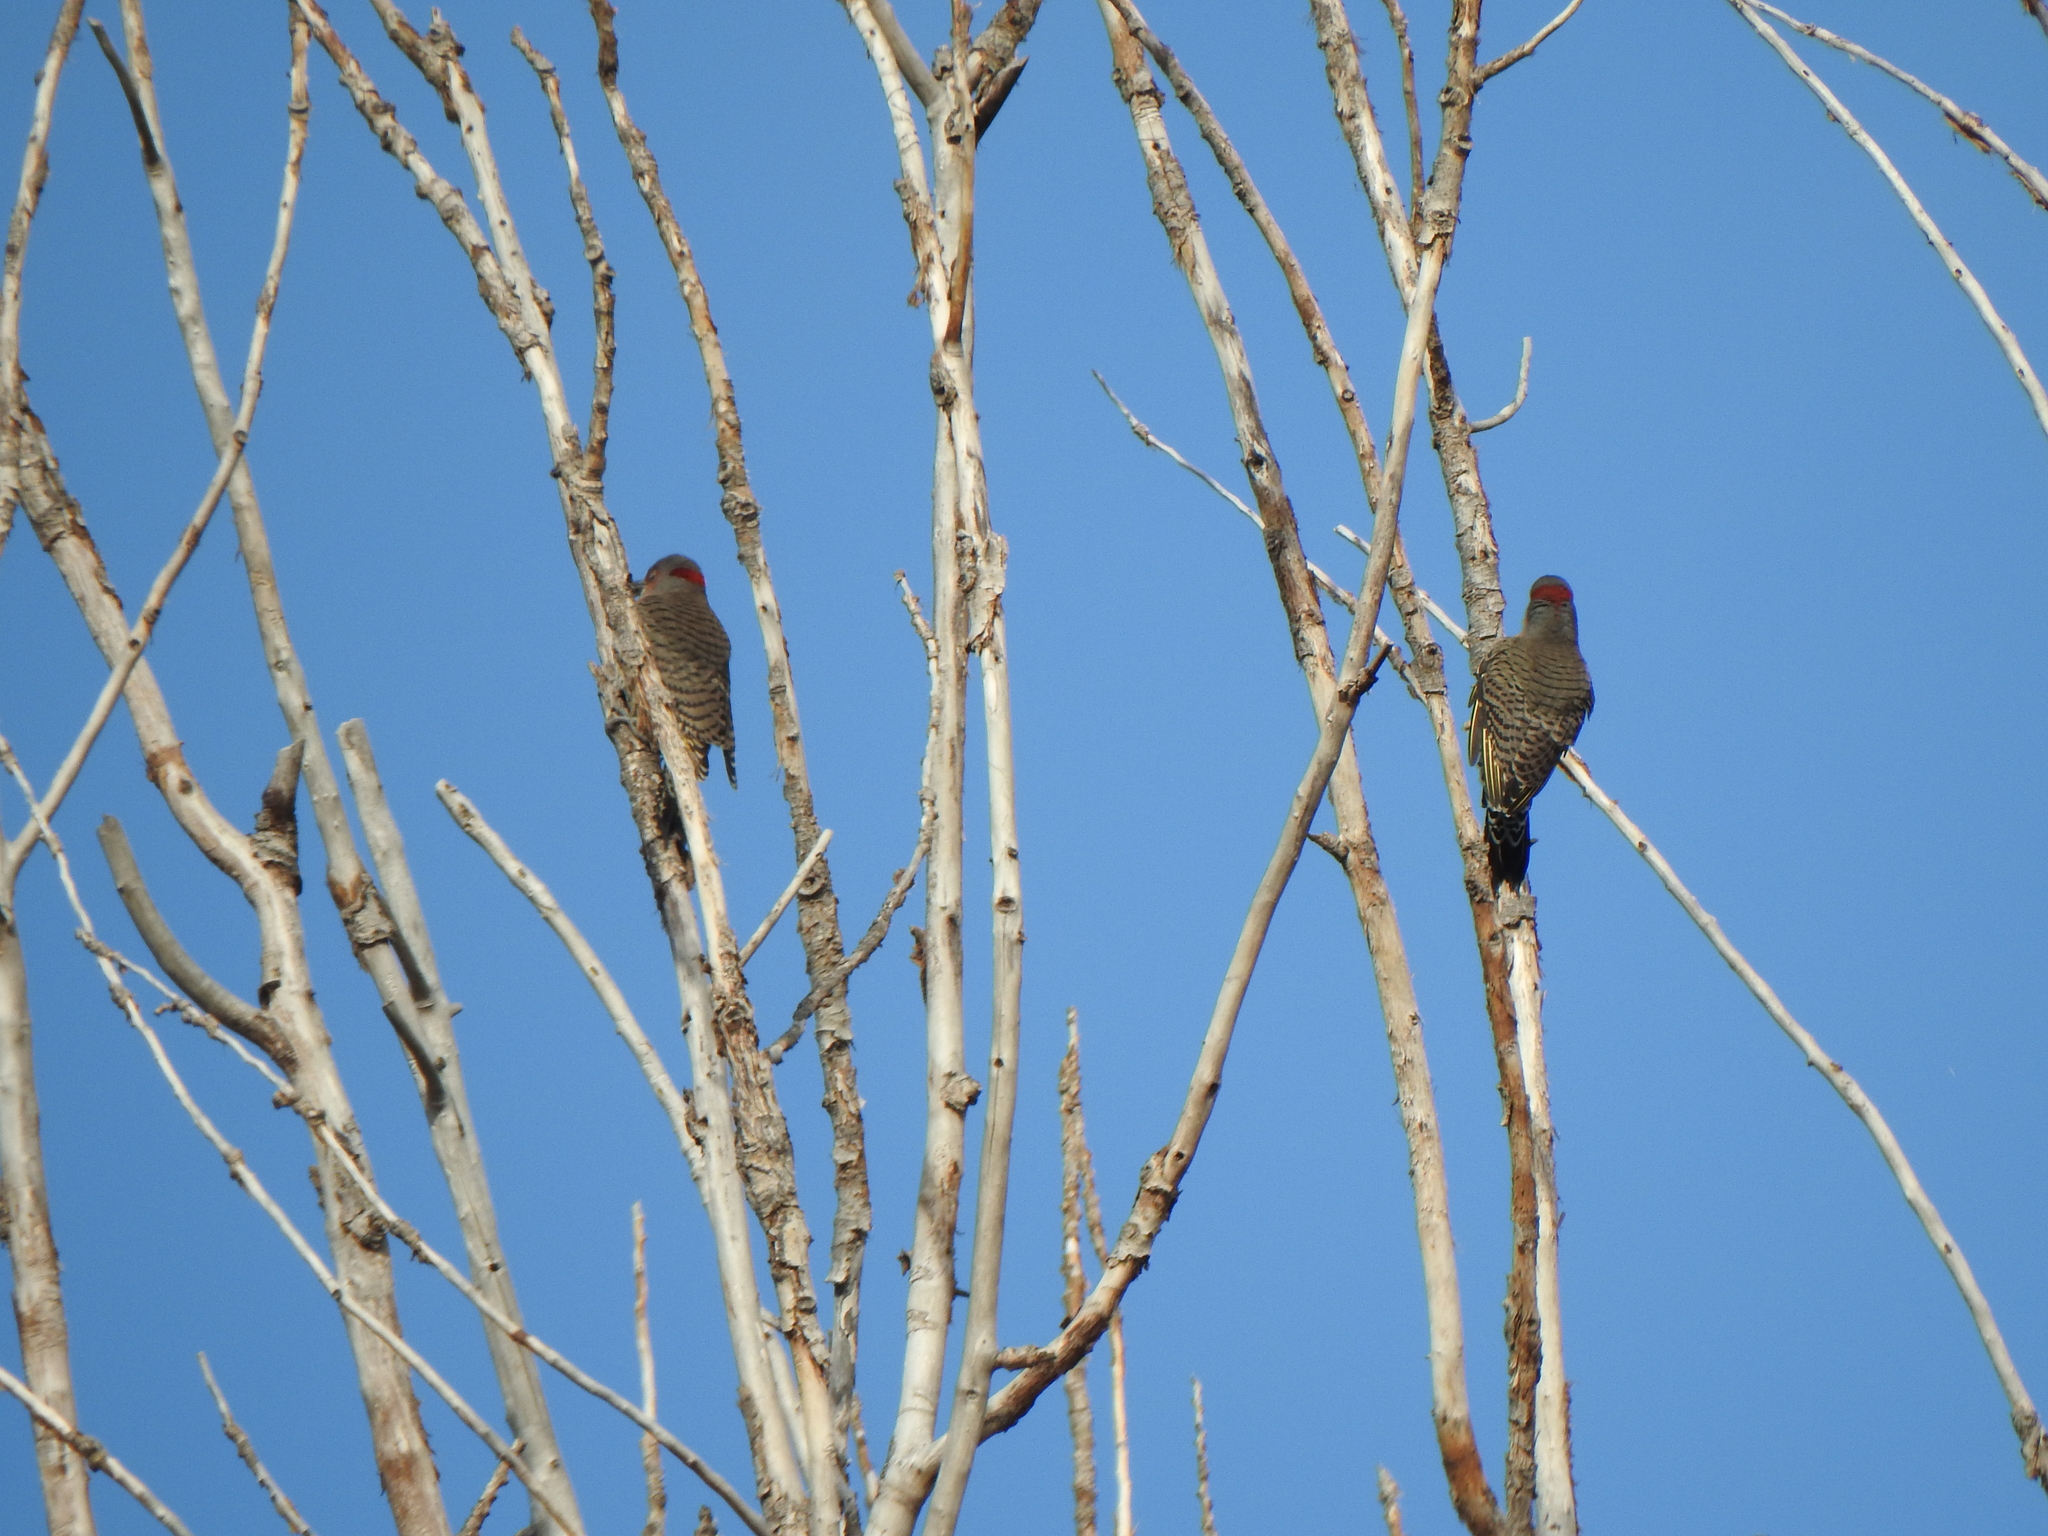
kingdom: Animalia
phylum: Chordata
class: Aves
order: Piciformes
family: Picidae
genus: Colaptes
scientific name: Colaptes auratus
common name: Northern flicker
